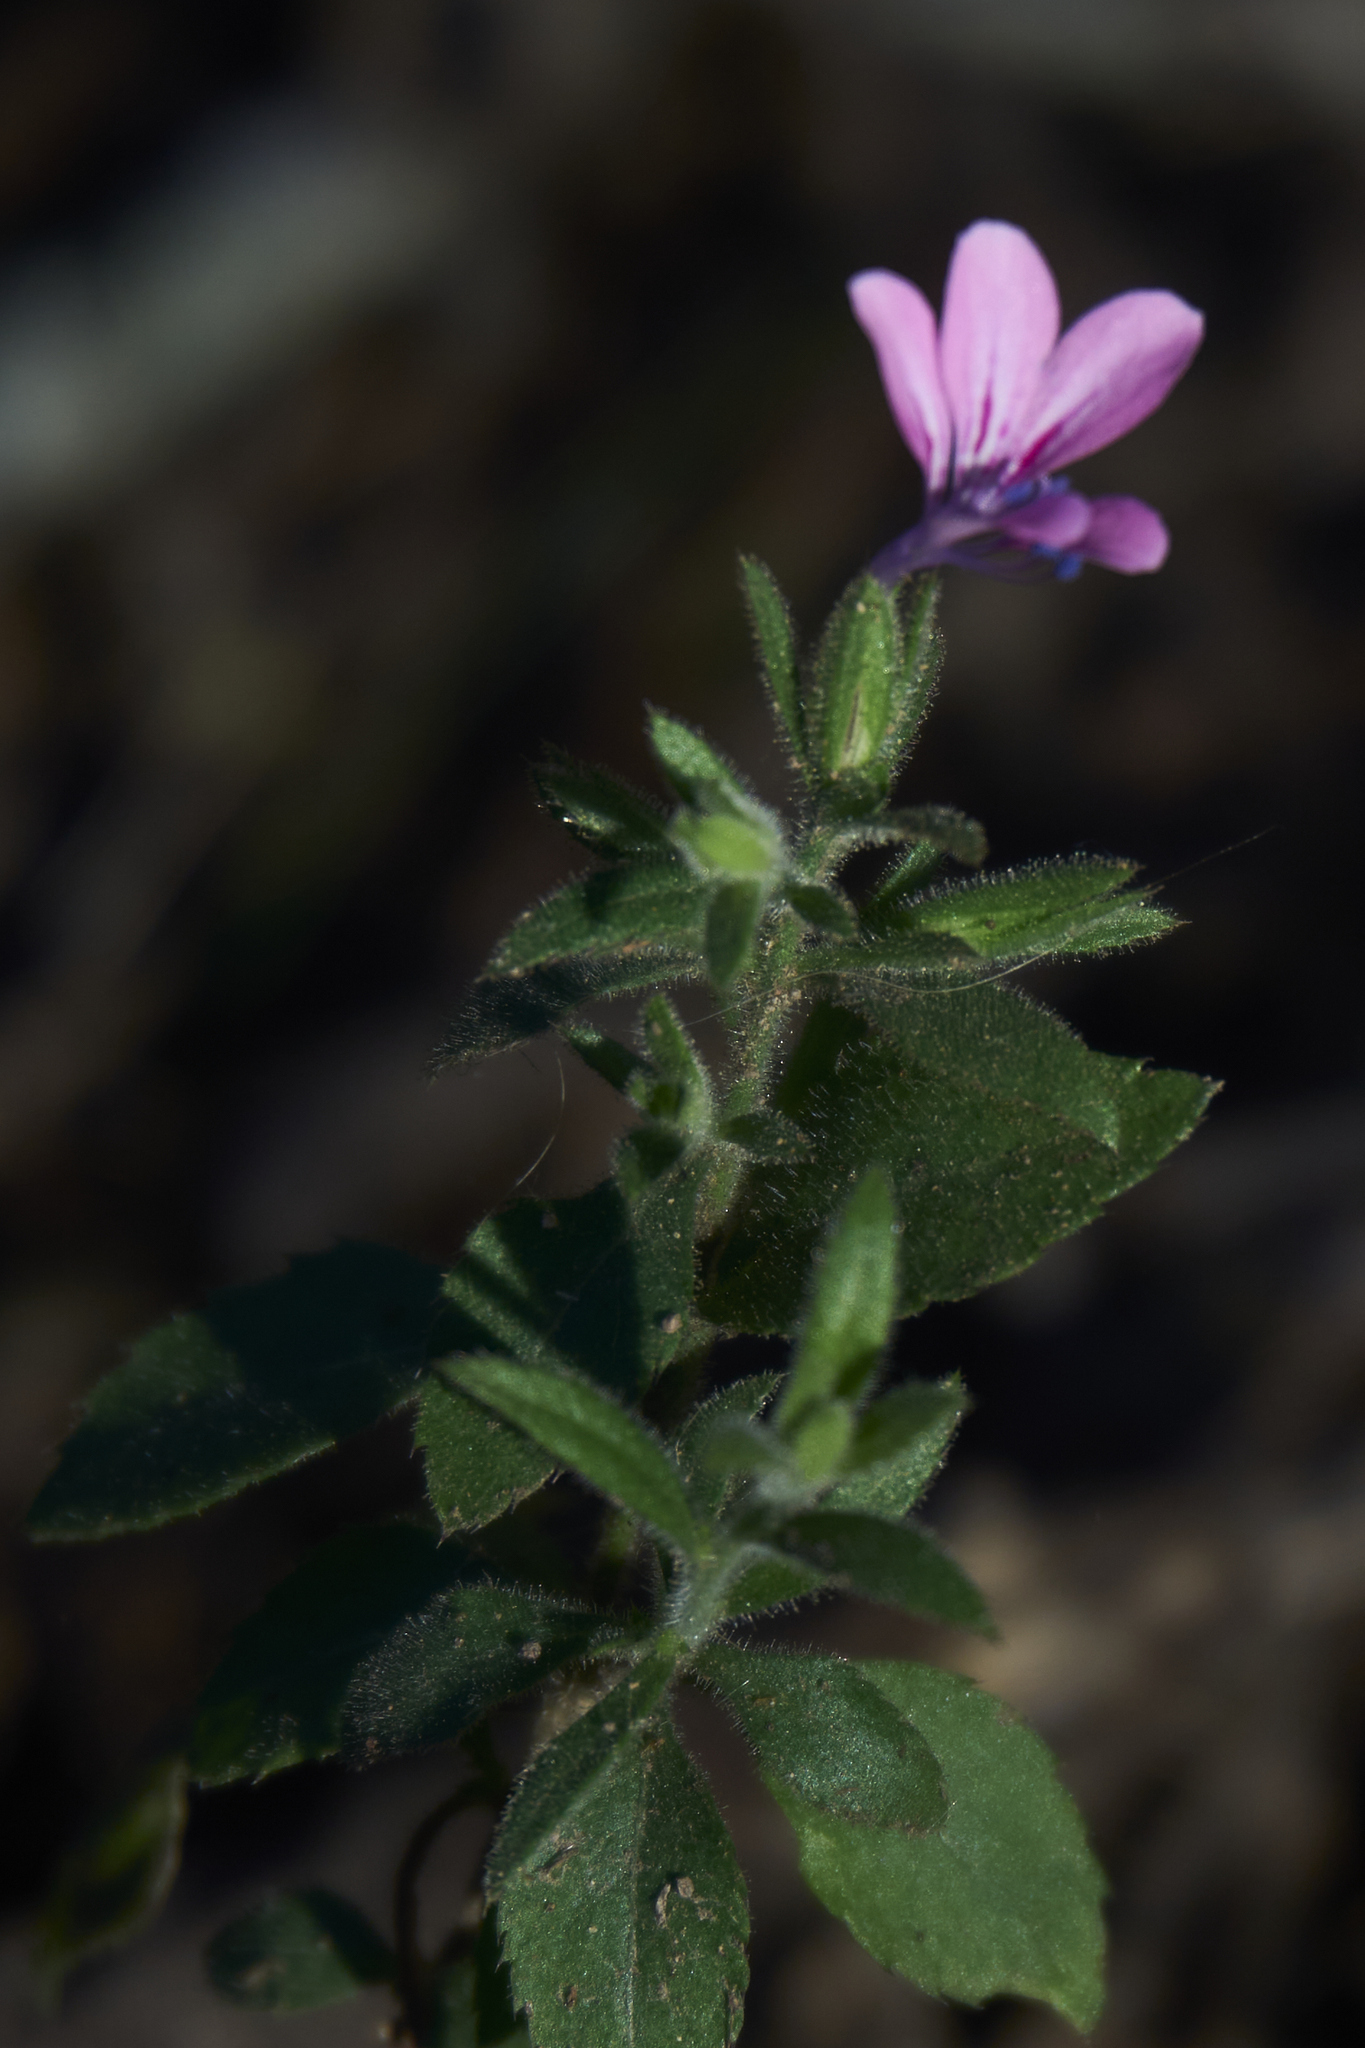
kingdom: Plantae
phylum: Tracheophyta
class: Magnoliopsida
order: Ericales
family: Polemoniaceae
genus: Loeselia
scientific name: Loeselia glandulosa
